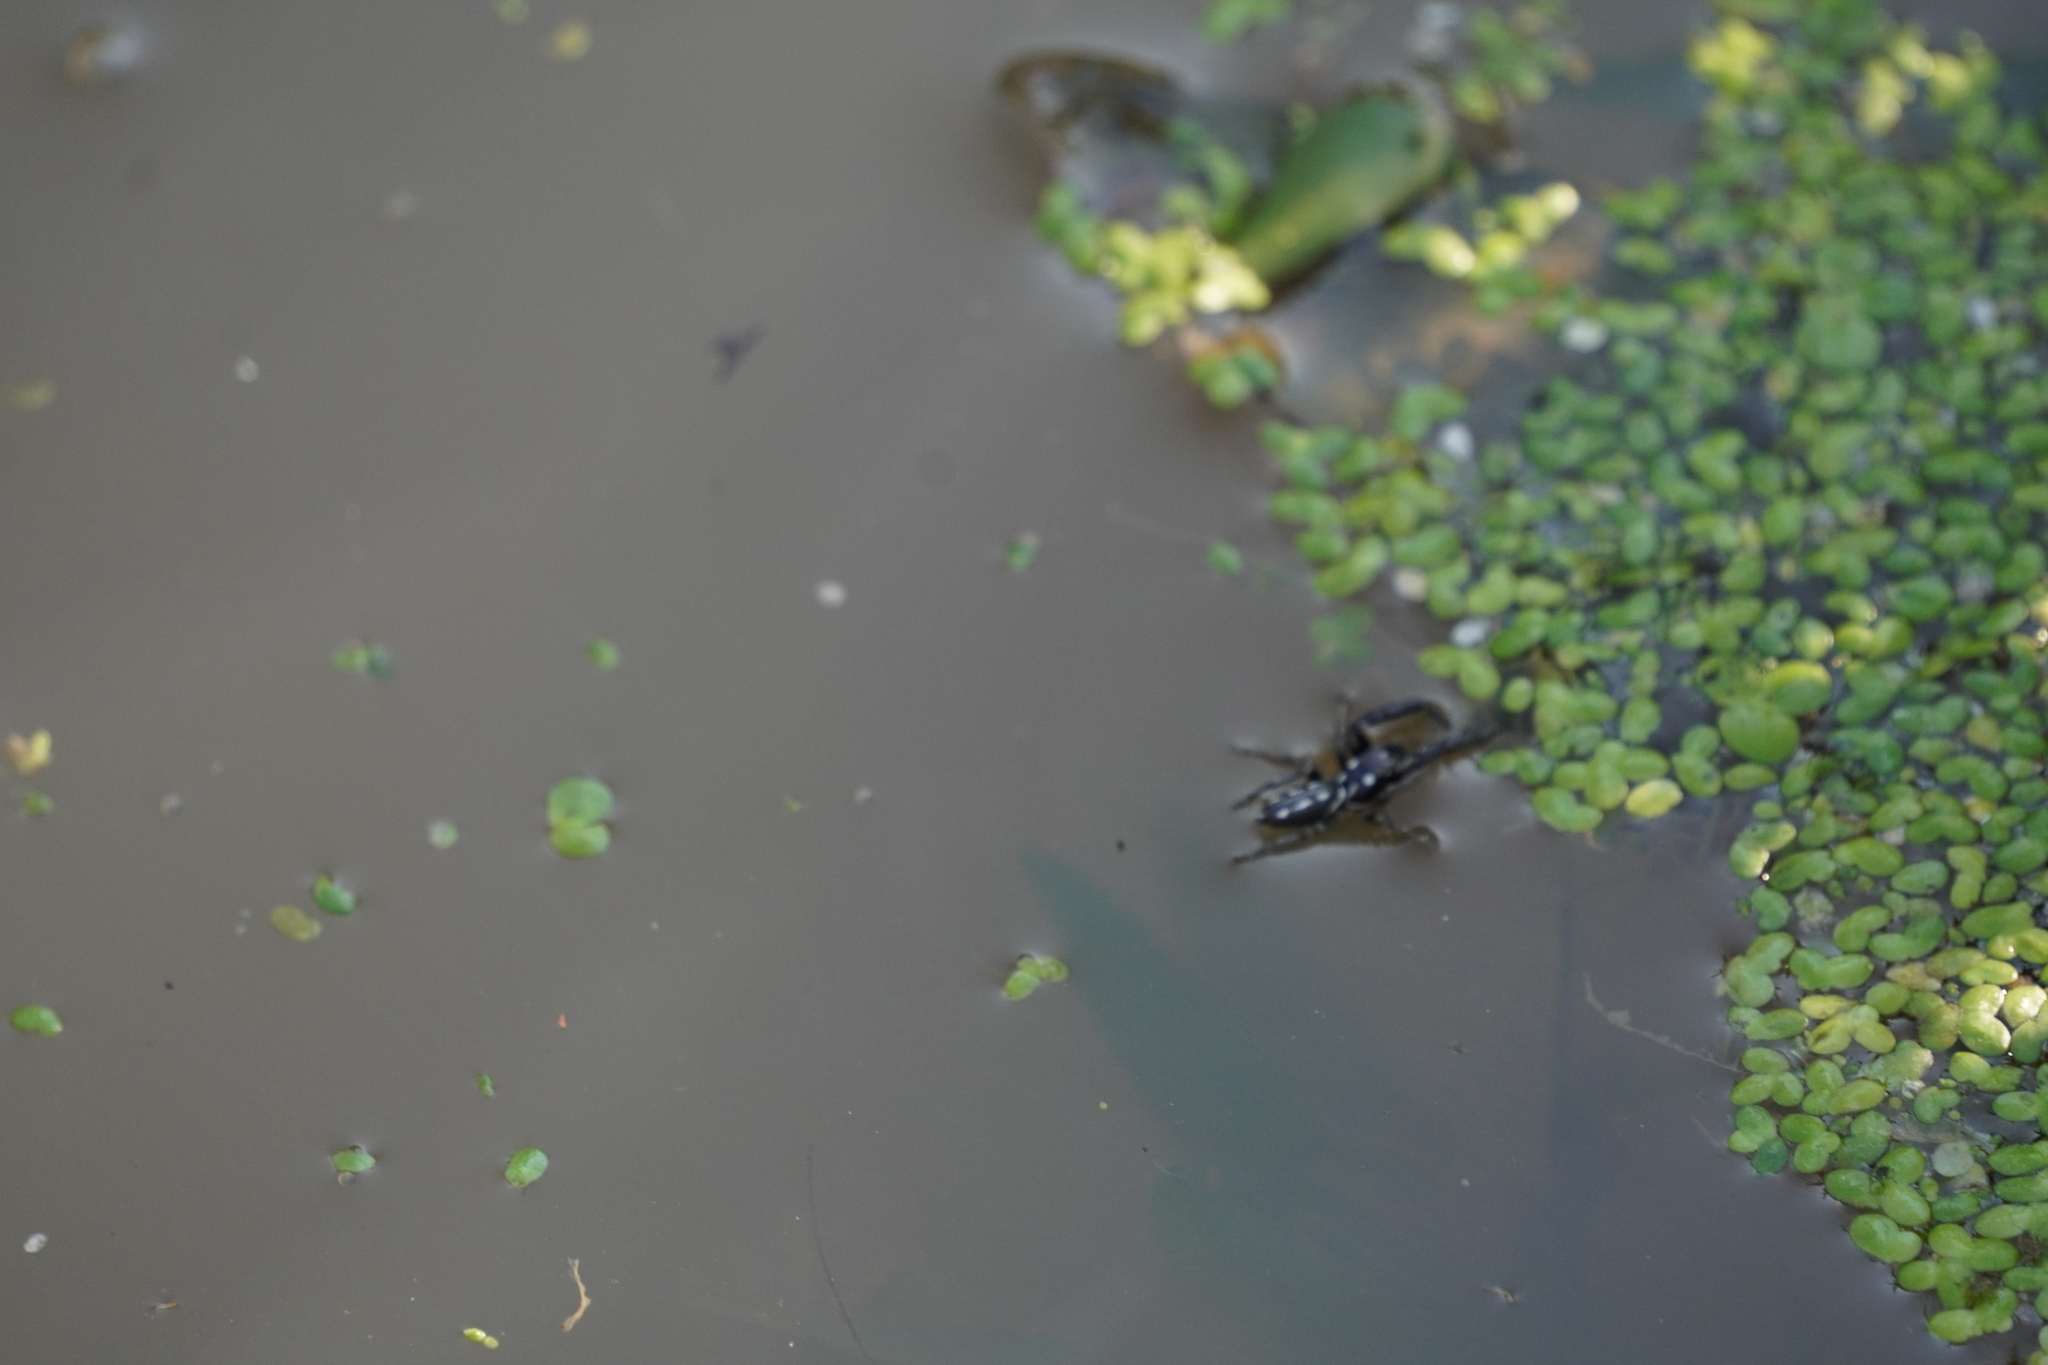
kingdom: Animalia
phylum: Arthropoda
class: Arachnida
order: Araneae
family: Salticidae
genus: Marpissa
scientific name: Marpissa formosa
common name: Short-bellied slender jumping spider
